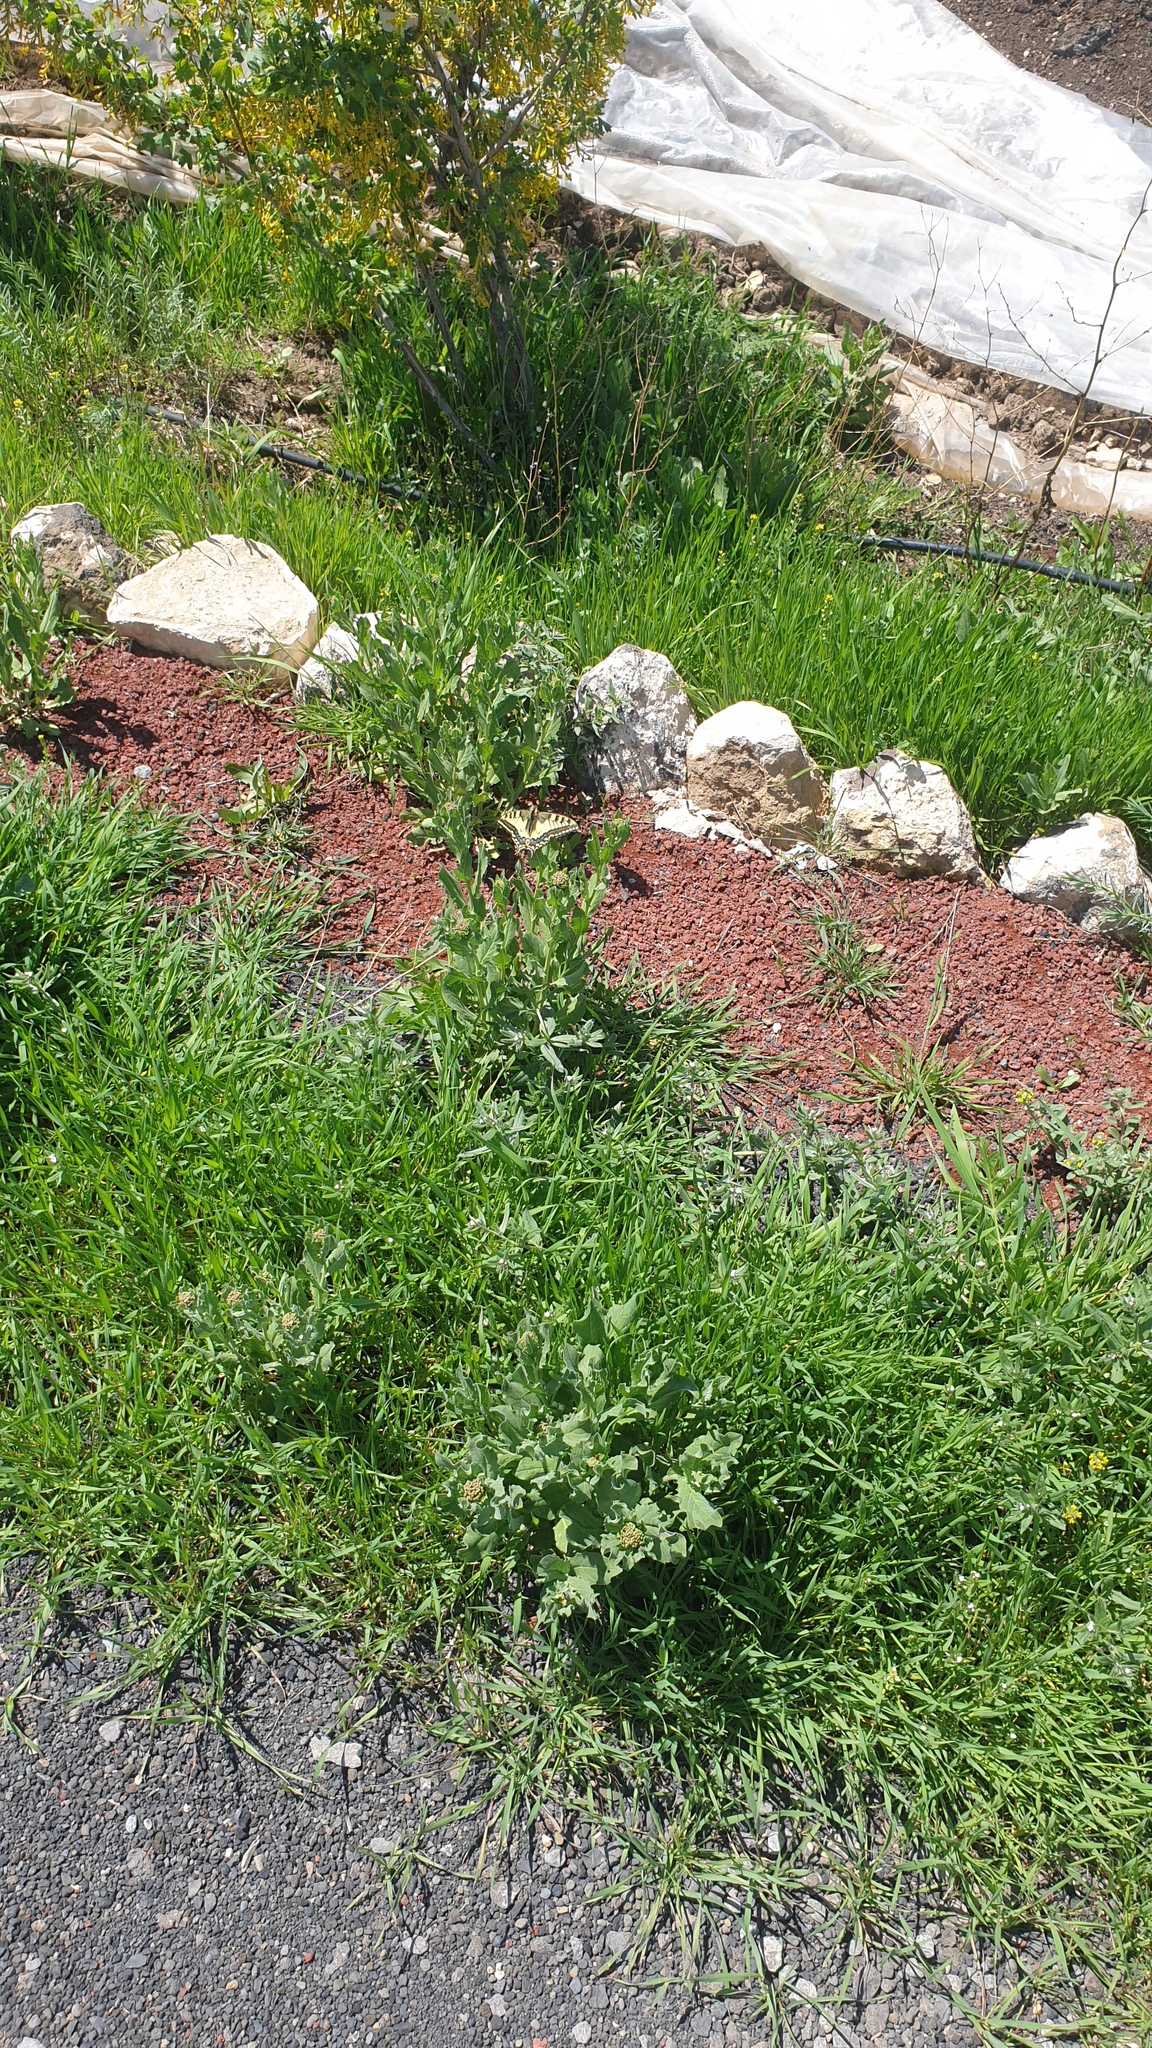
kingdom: Animalia
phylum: Arthropoda
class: Insecta
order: Lepidoptera
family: Papilionidae
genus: Papilio
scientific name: Papilio machaon
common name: Swallowtail
